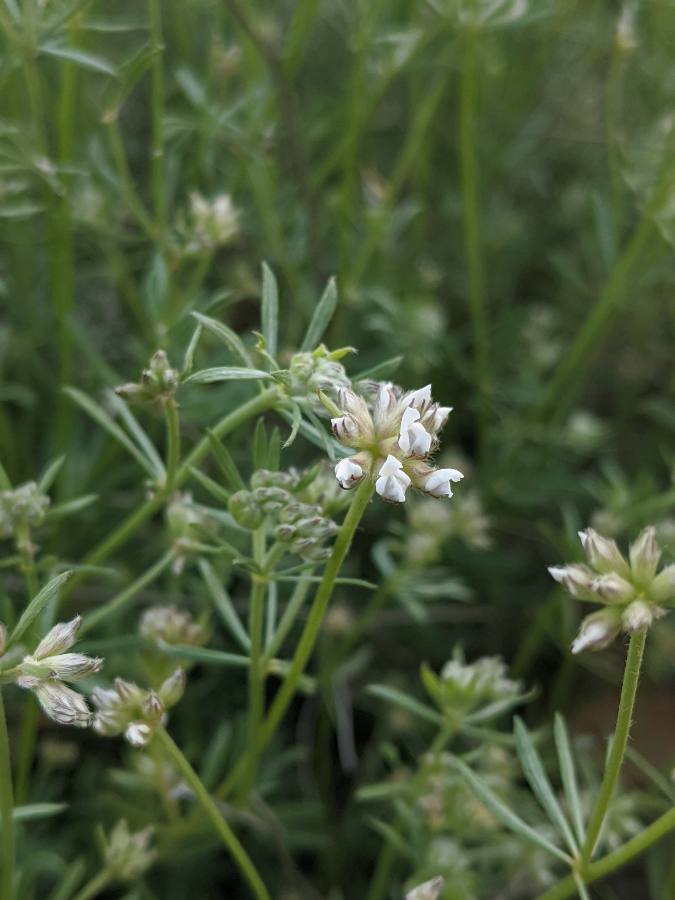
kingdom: Plantae
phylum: Tracheophyta
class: Magnoliopsida
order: Fabales
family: Fabaceae
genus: Lotus
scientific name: Lotus dorycnium
